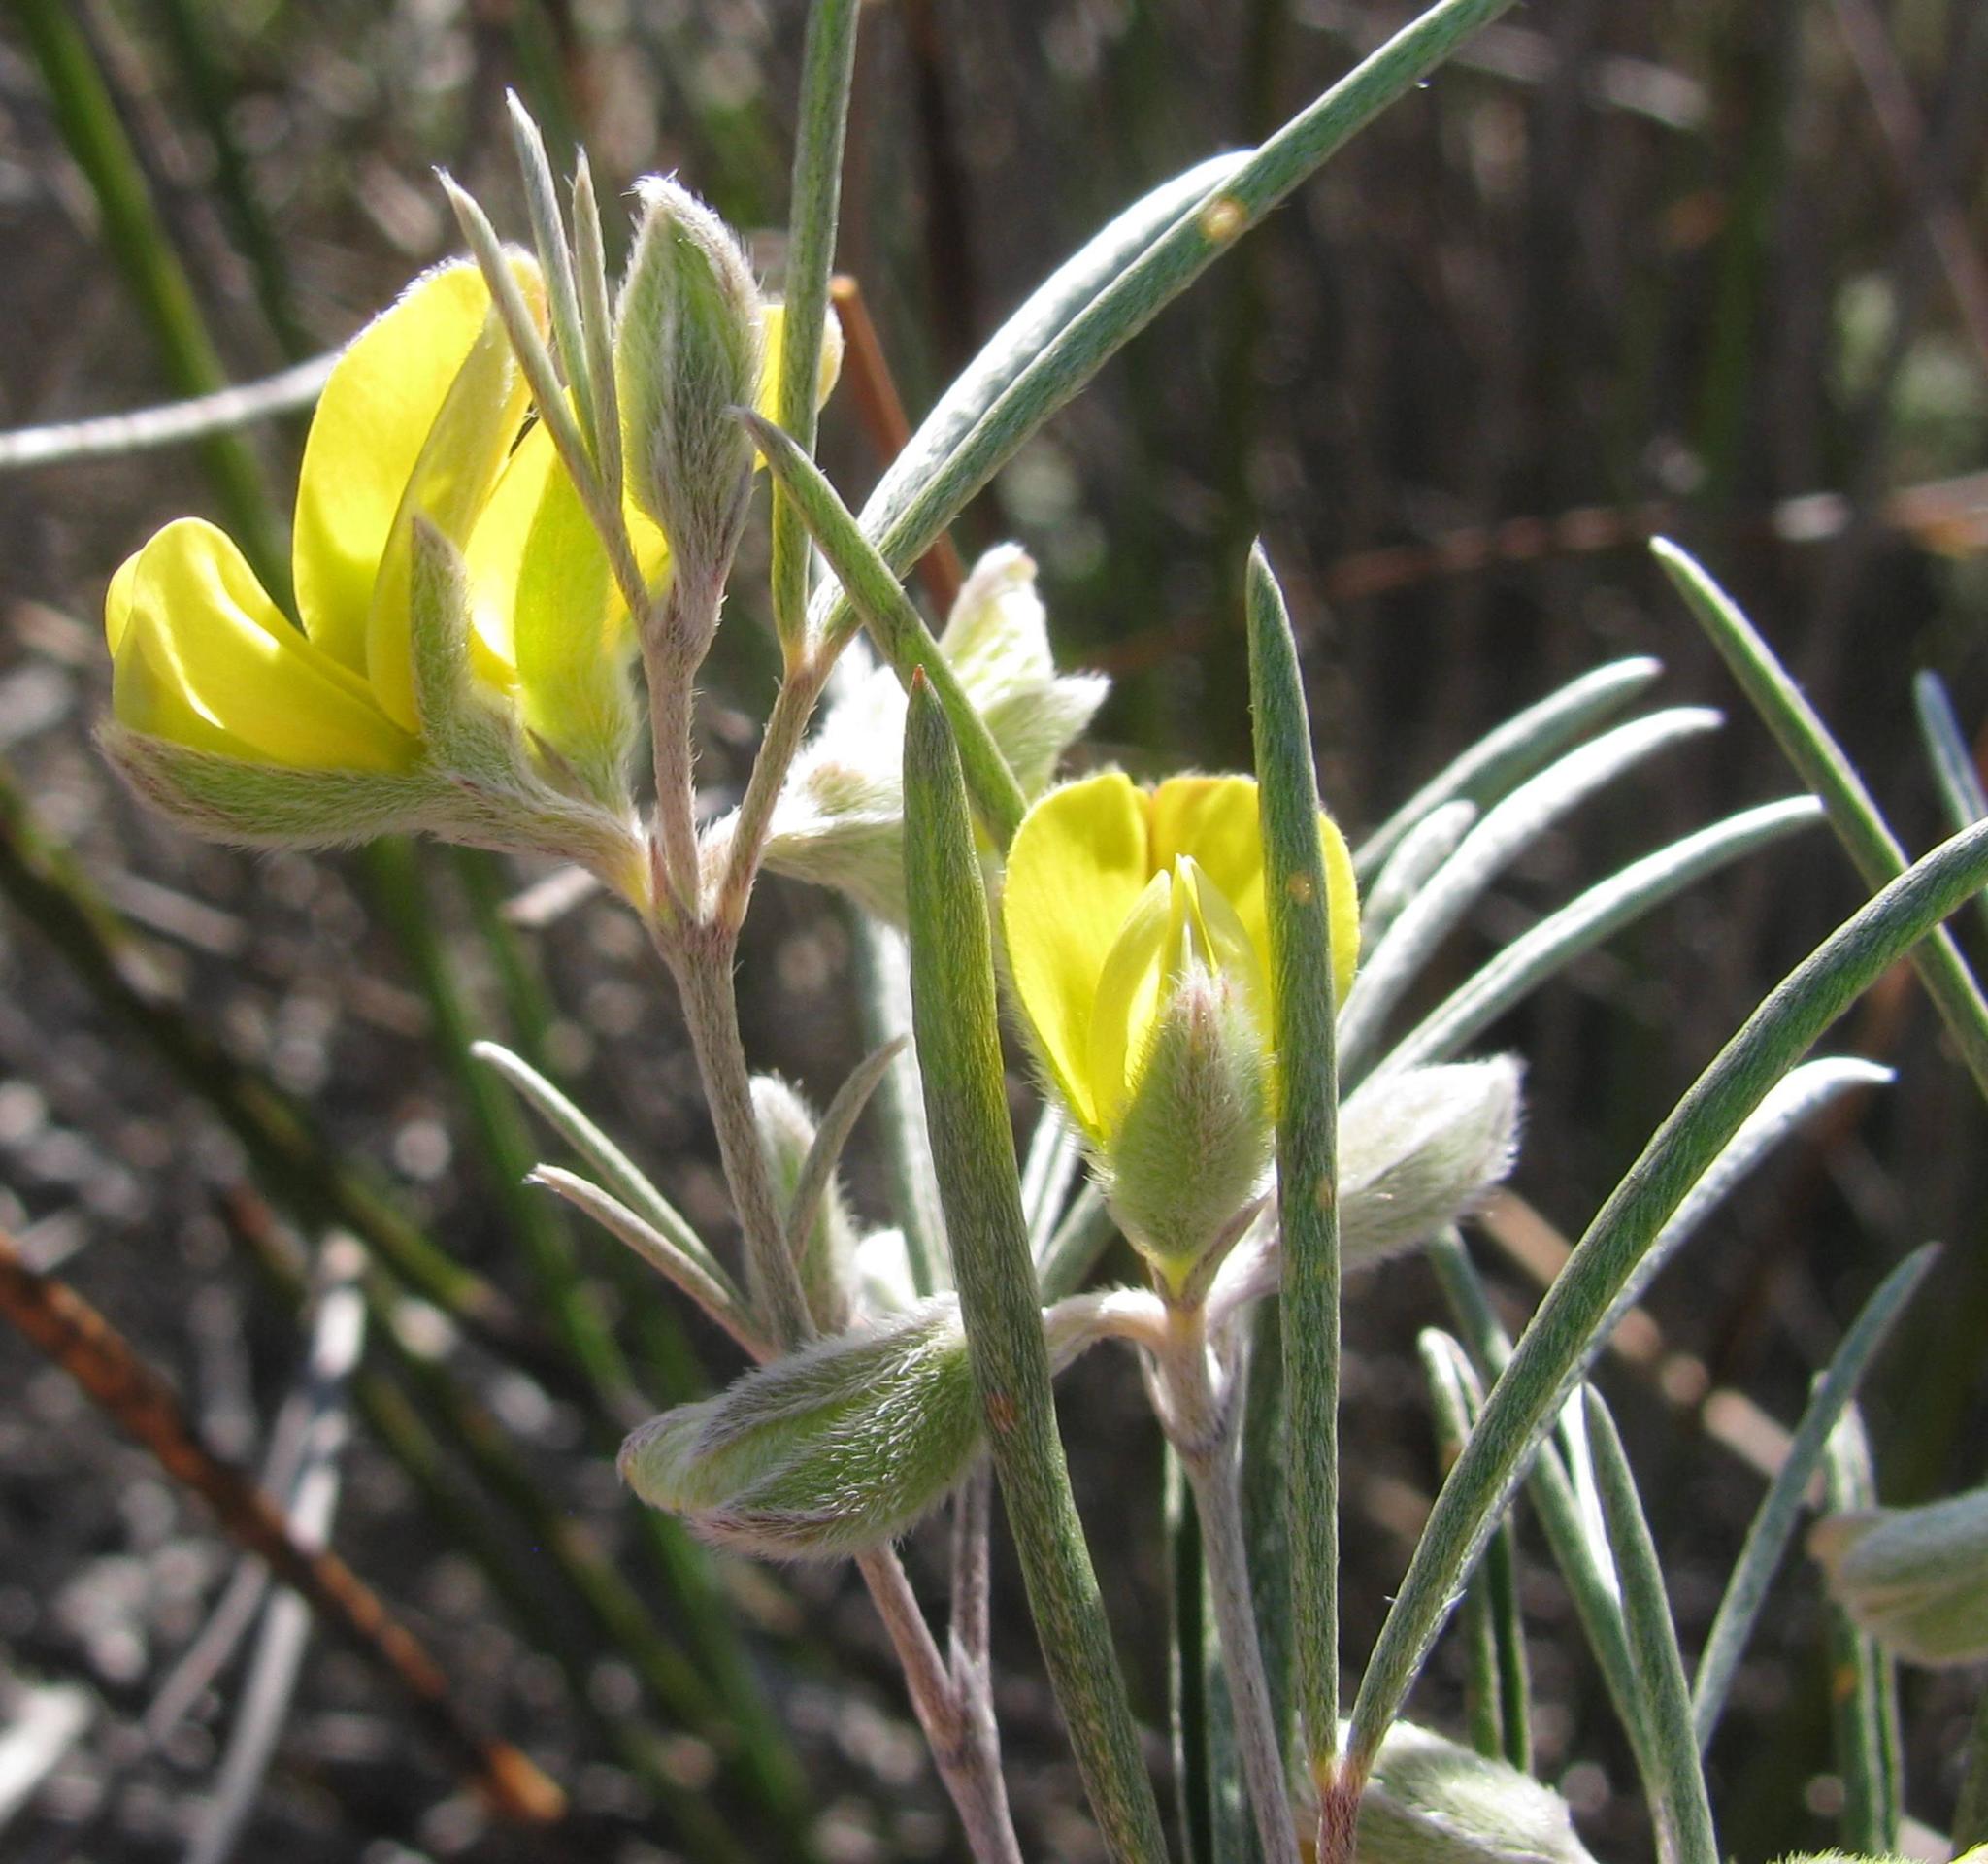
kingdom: Plantae
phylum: Tracheophyta
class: Magnoliopsida
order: Fabales
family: Fabaceae
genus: Argyrolobium
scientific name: Argyrolobium filifolia
